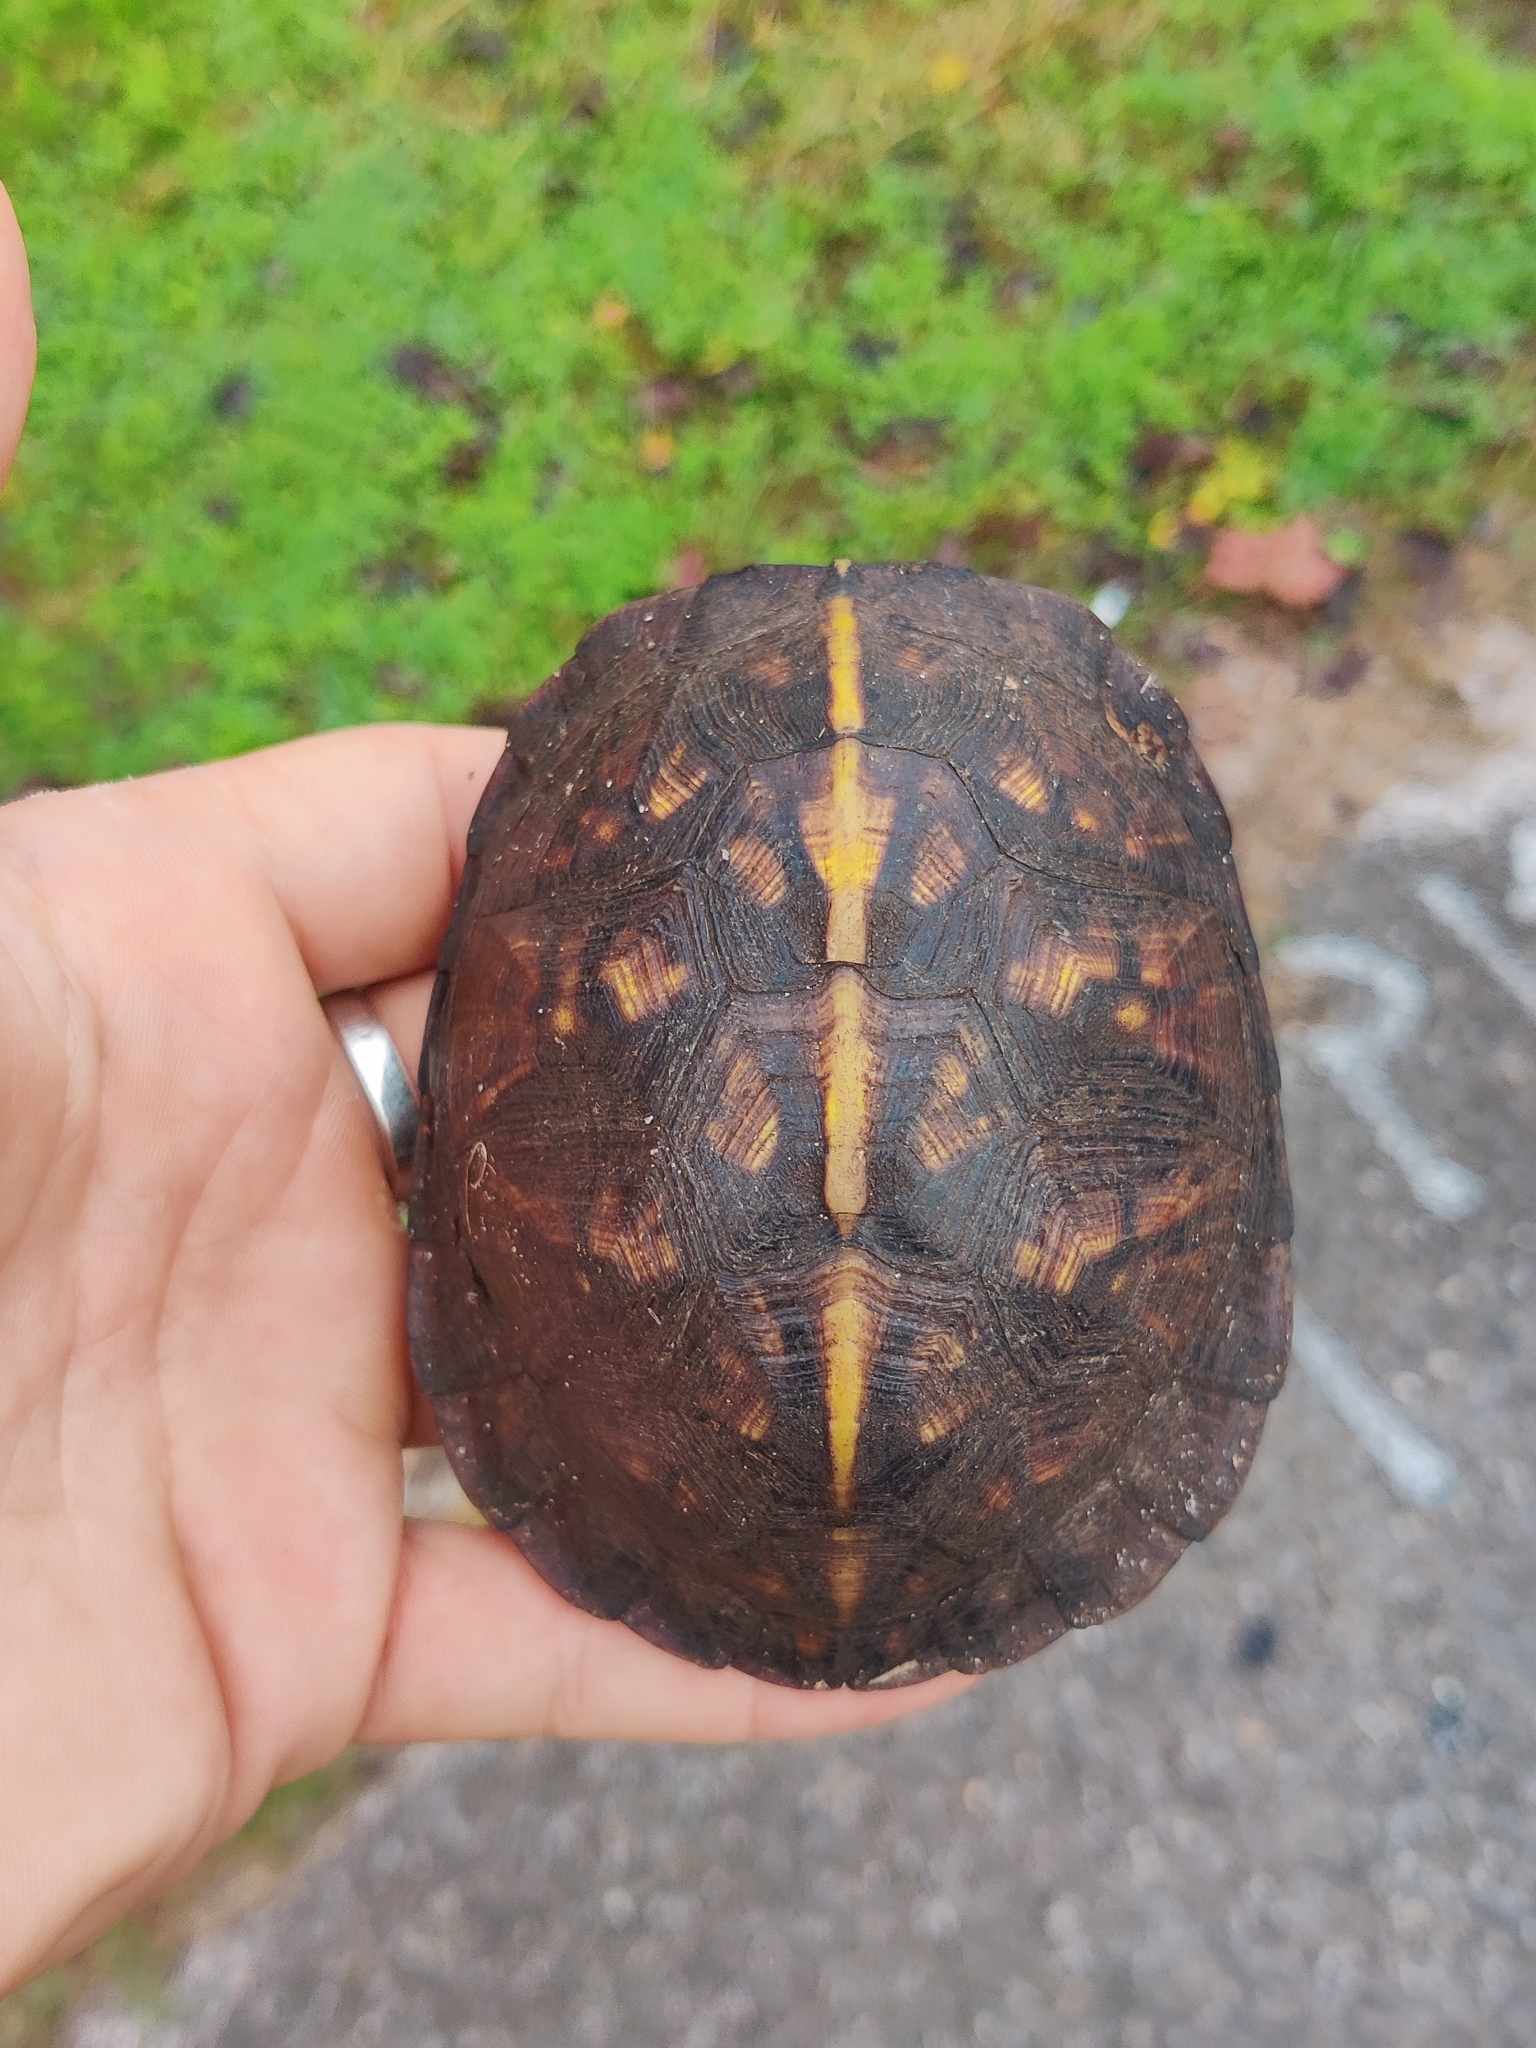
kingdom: Animalia
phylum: Chordata
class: Testudines
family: Emydidae
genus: Terrapene
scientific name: Terrapene carolina
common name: Common box turtle
